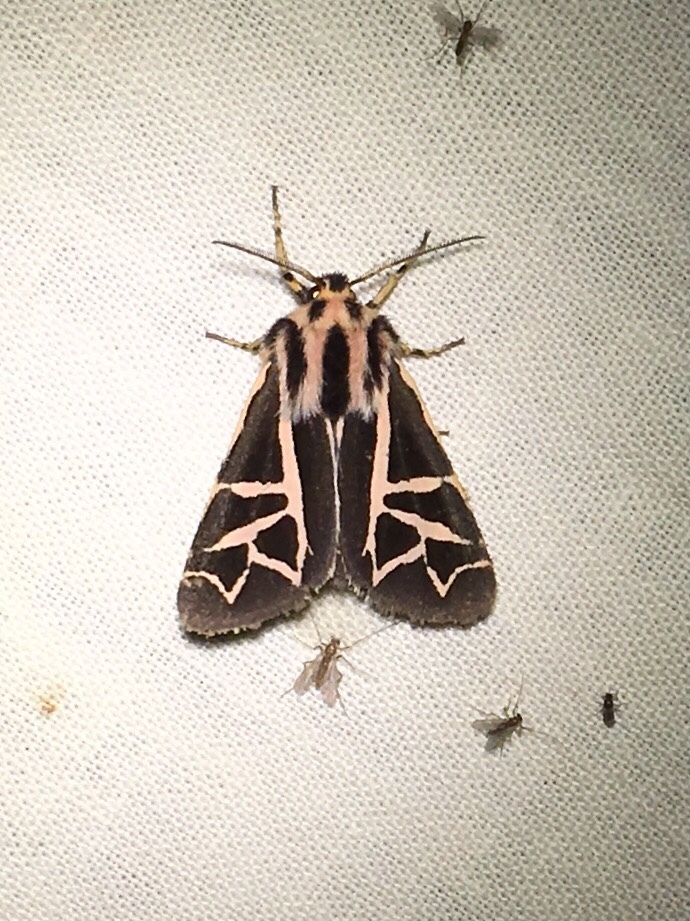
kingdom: Animalia
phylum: Arthropoda
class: Insecta
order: Lepidoptera
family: Erebidae
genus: Apantesis
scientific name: Apantesis
